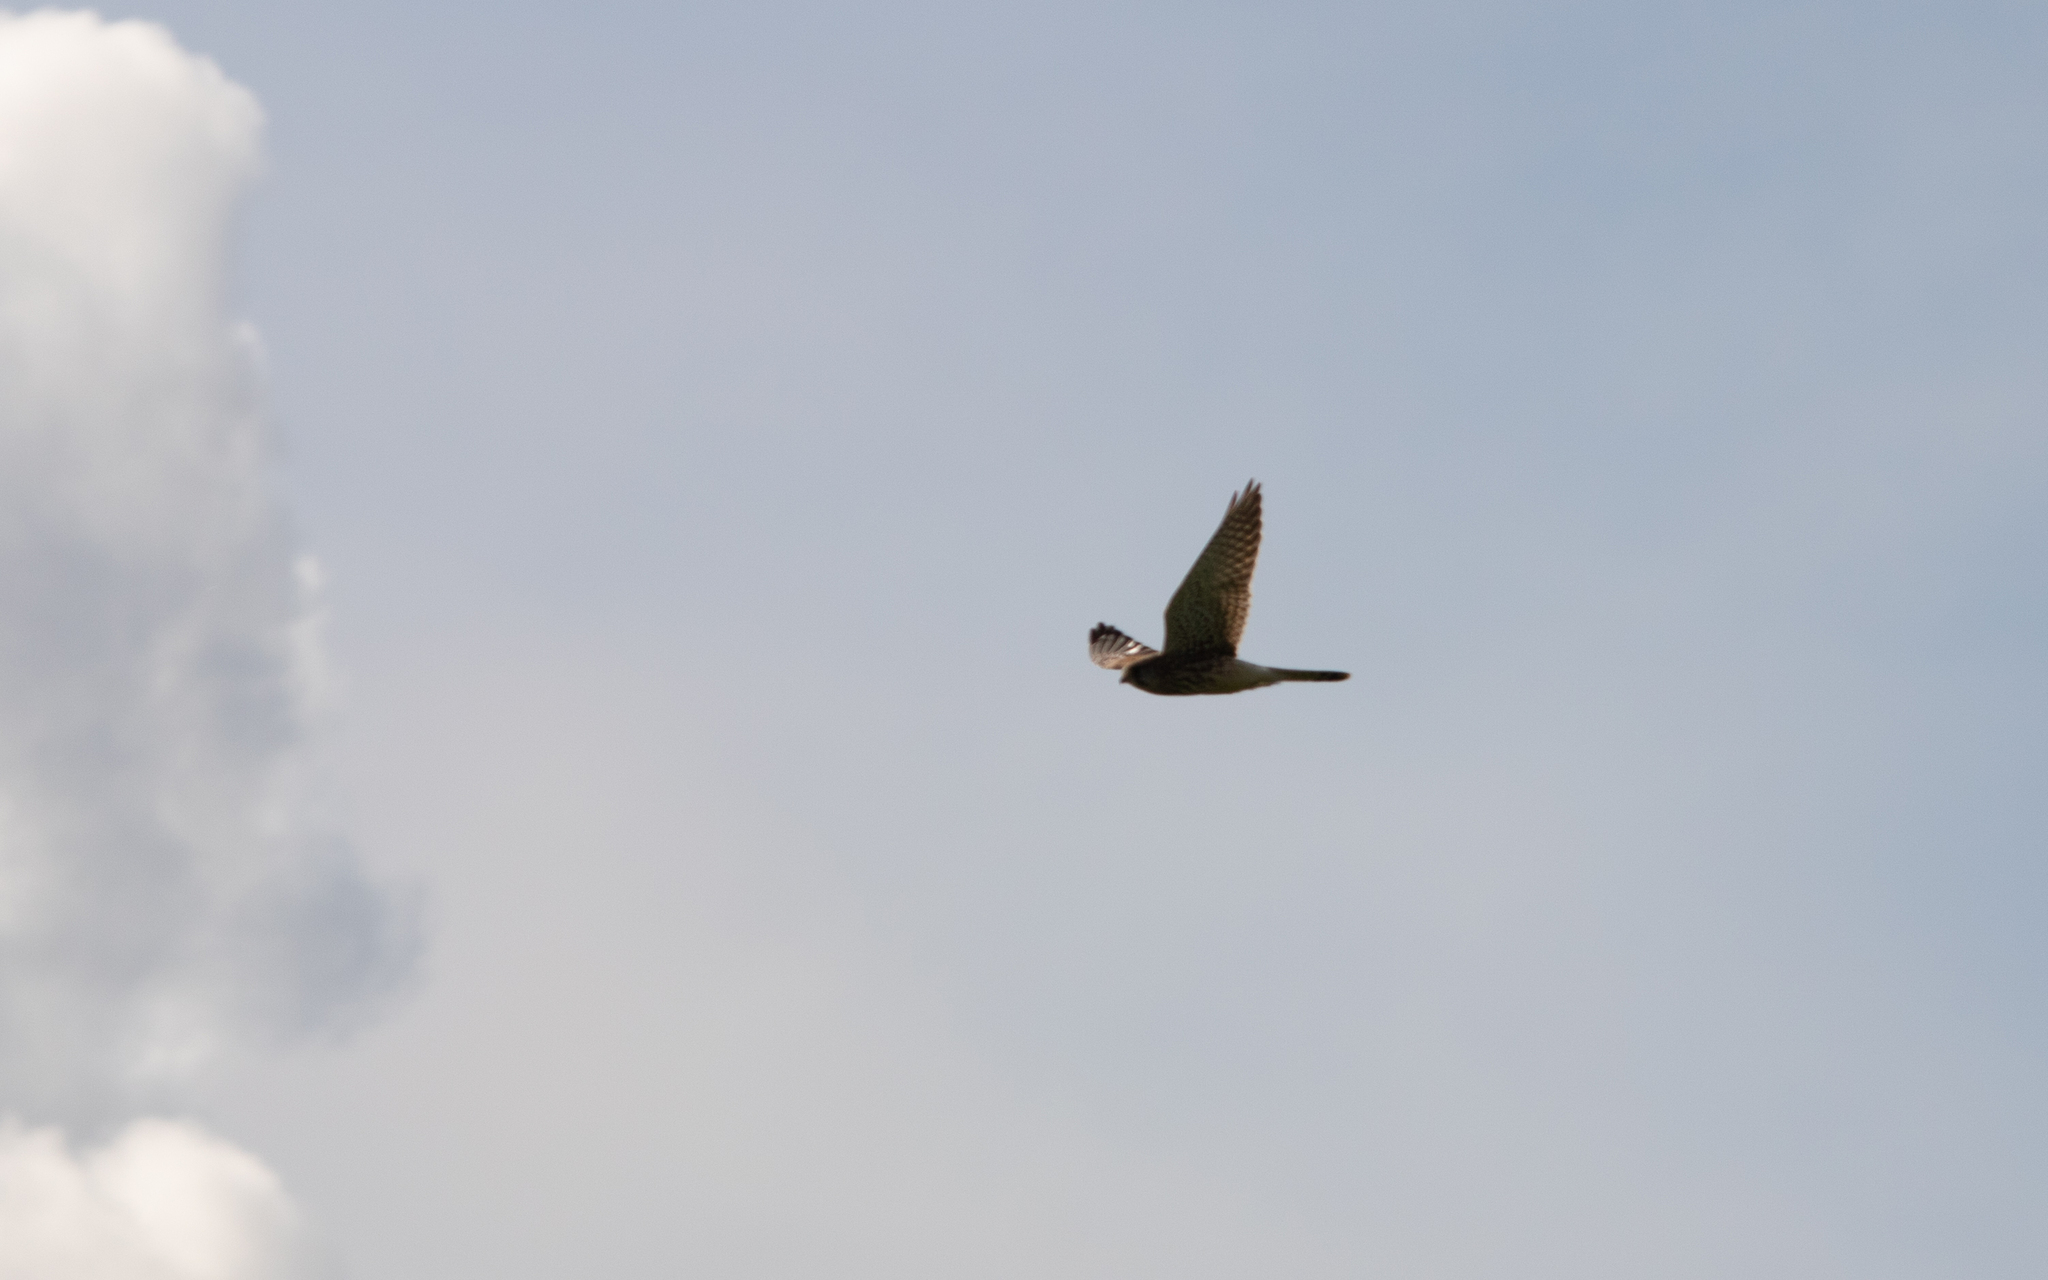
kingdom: Animalia
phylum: Chordata
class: Aves
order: Falconiformes
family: Falconidae
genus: Falco
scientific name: Falco tinnunculus
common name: Common kestrel
